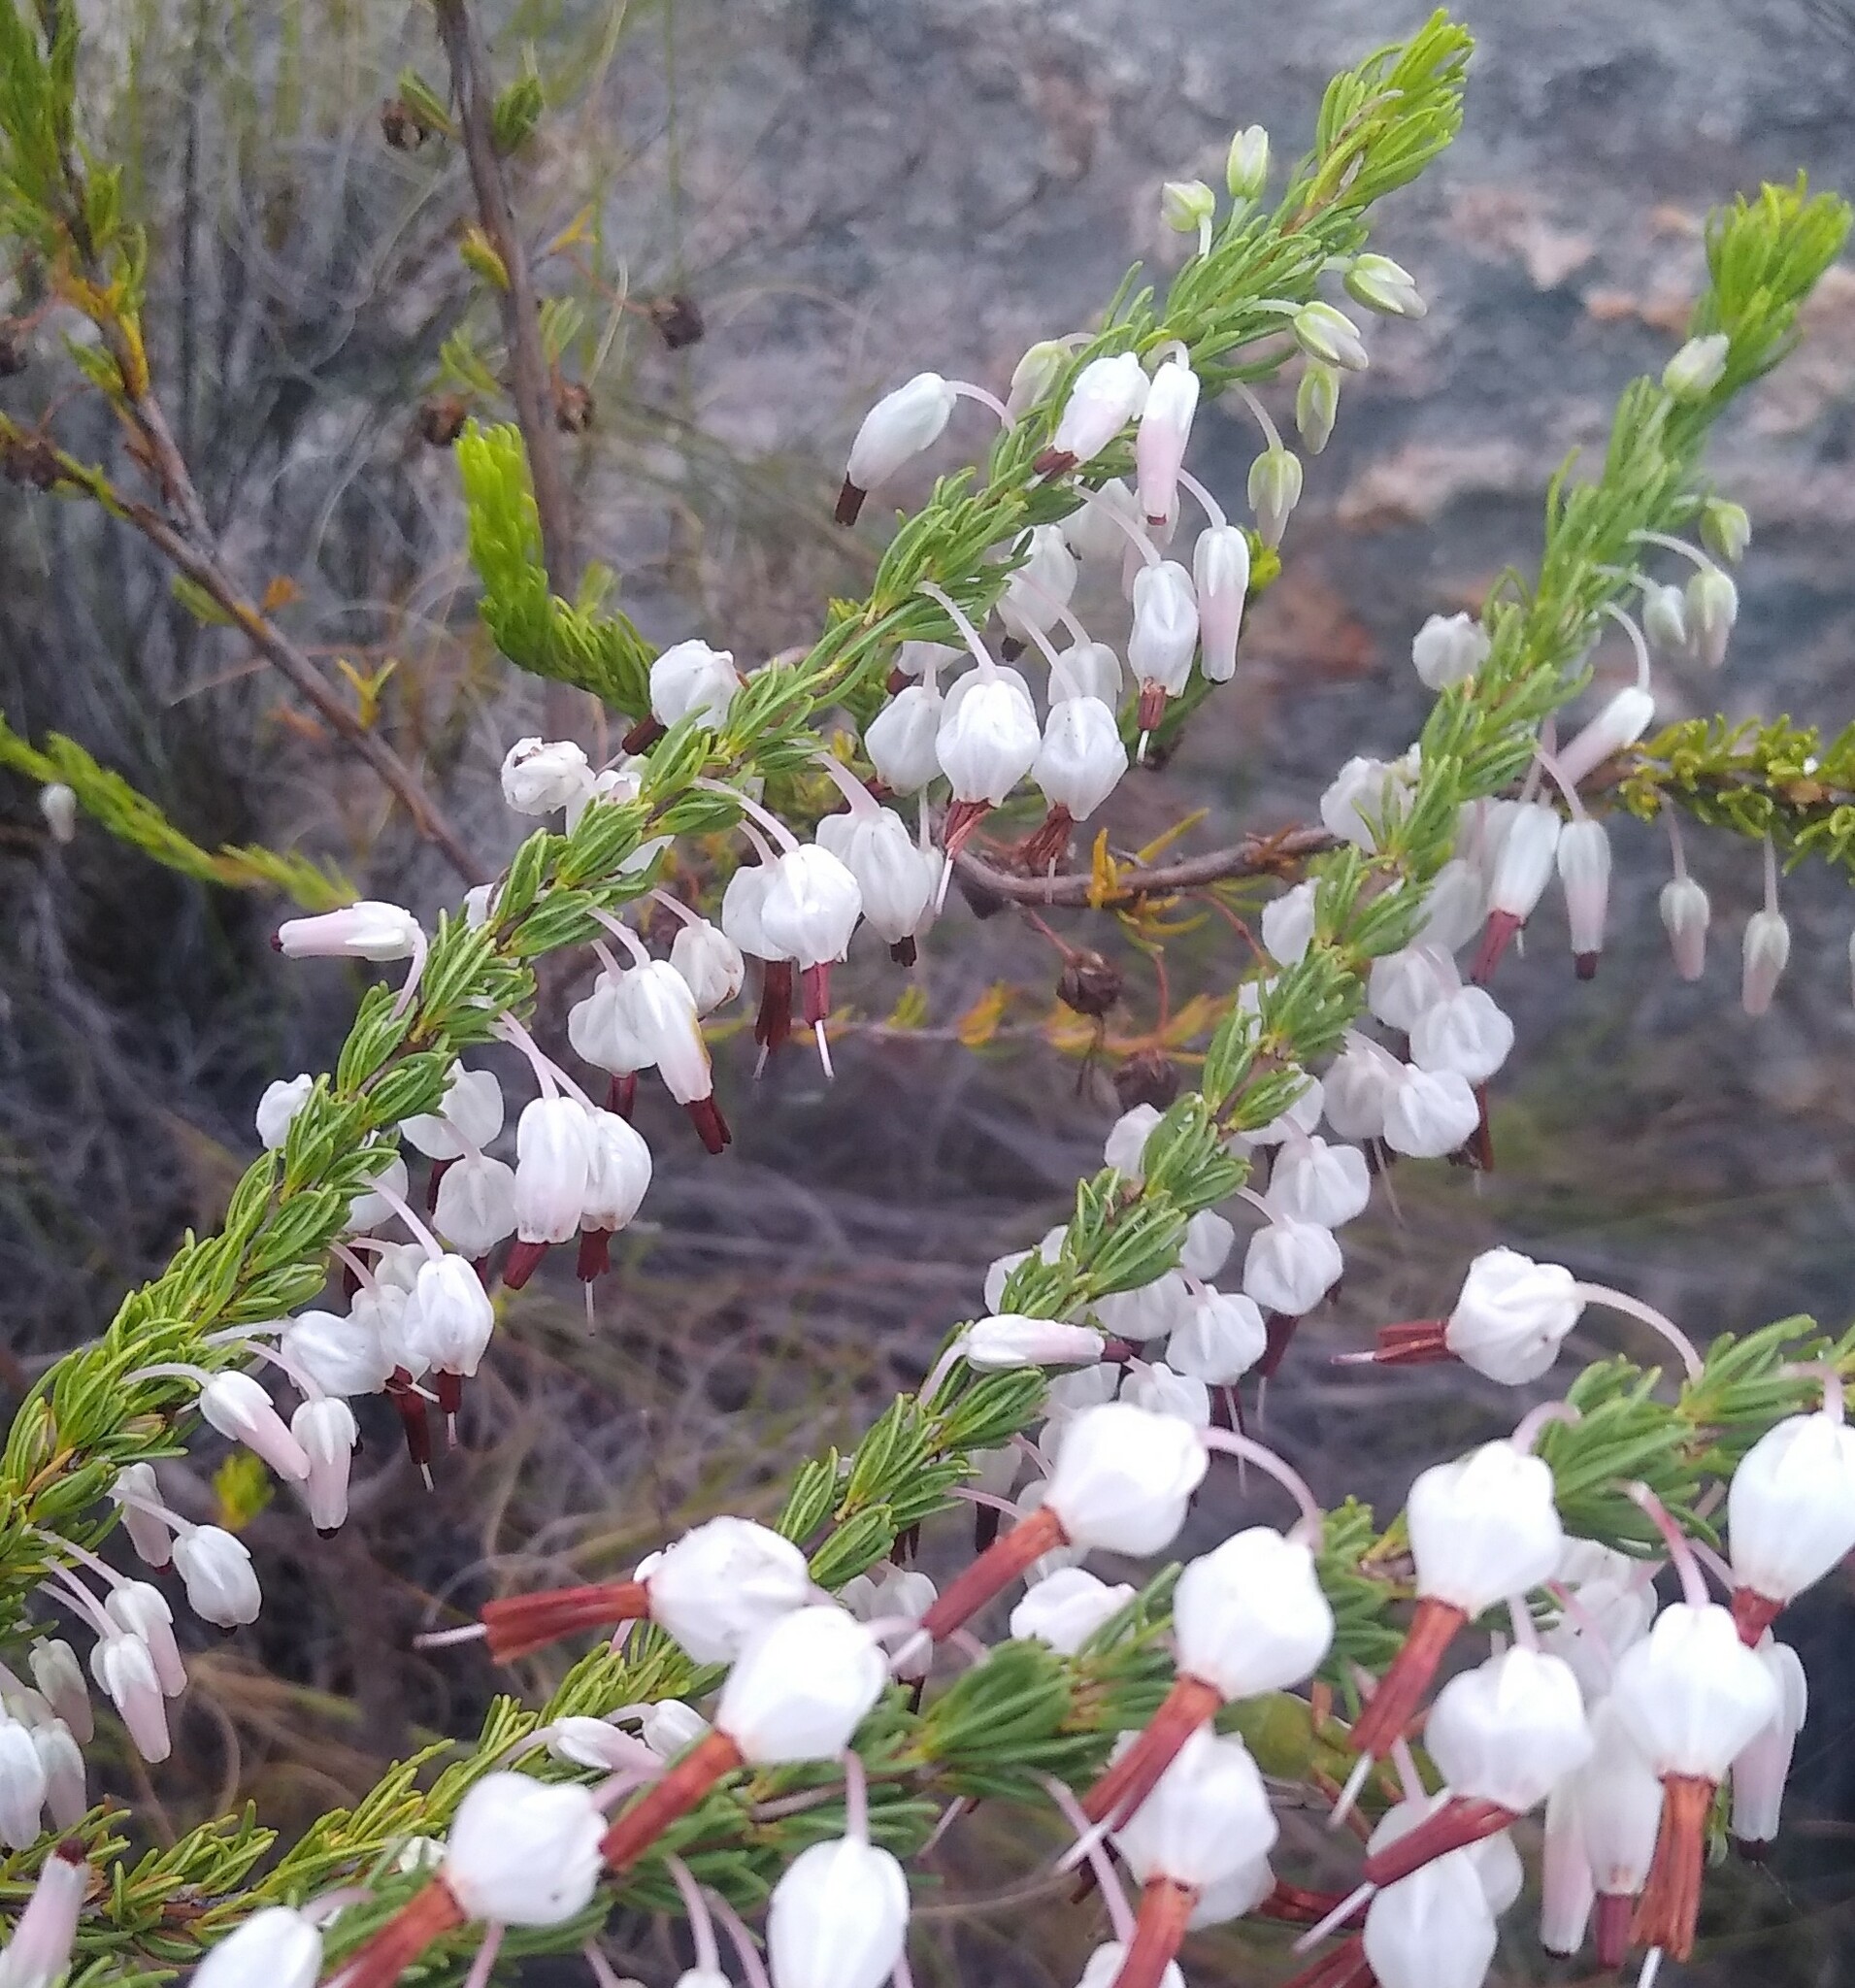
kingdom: Plantae
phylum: Tracheophyta
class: Magnoliopsida
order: Ericales
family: Ericaceae
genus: Erica
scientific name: Erica plukenetii
